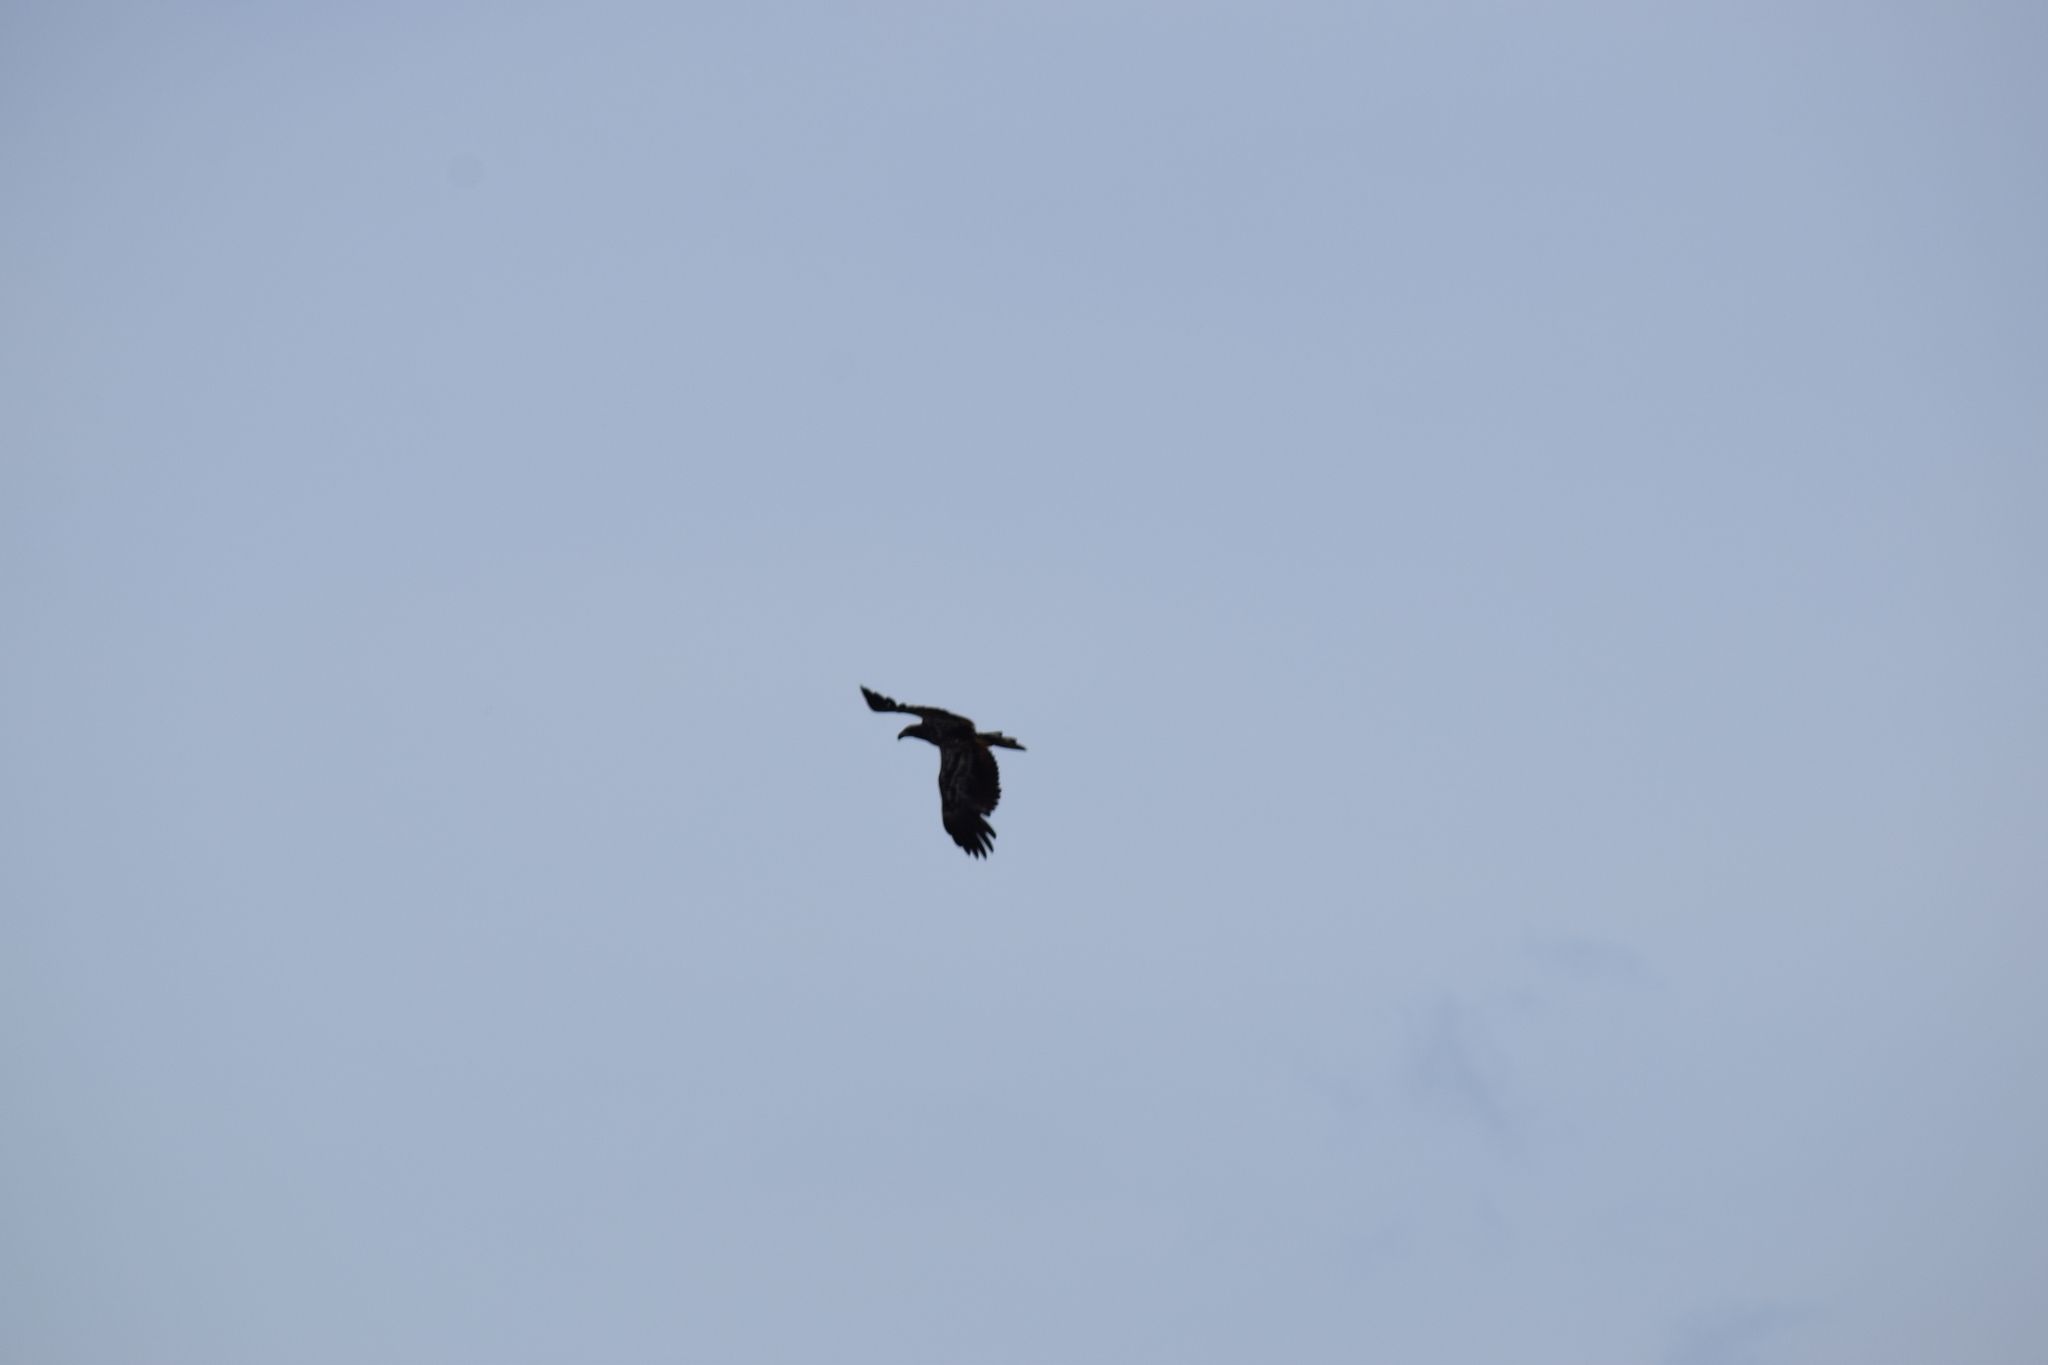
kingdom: Animalia
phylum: Chordata
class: Aves
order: Accipitriformes
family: Accipitridae
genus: Haliaeetus
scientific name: Haliaeetus leucocephalus
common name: Bald eagle
